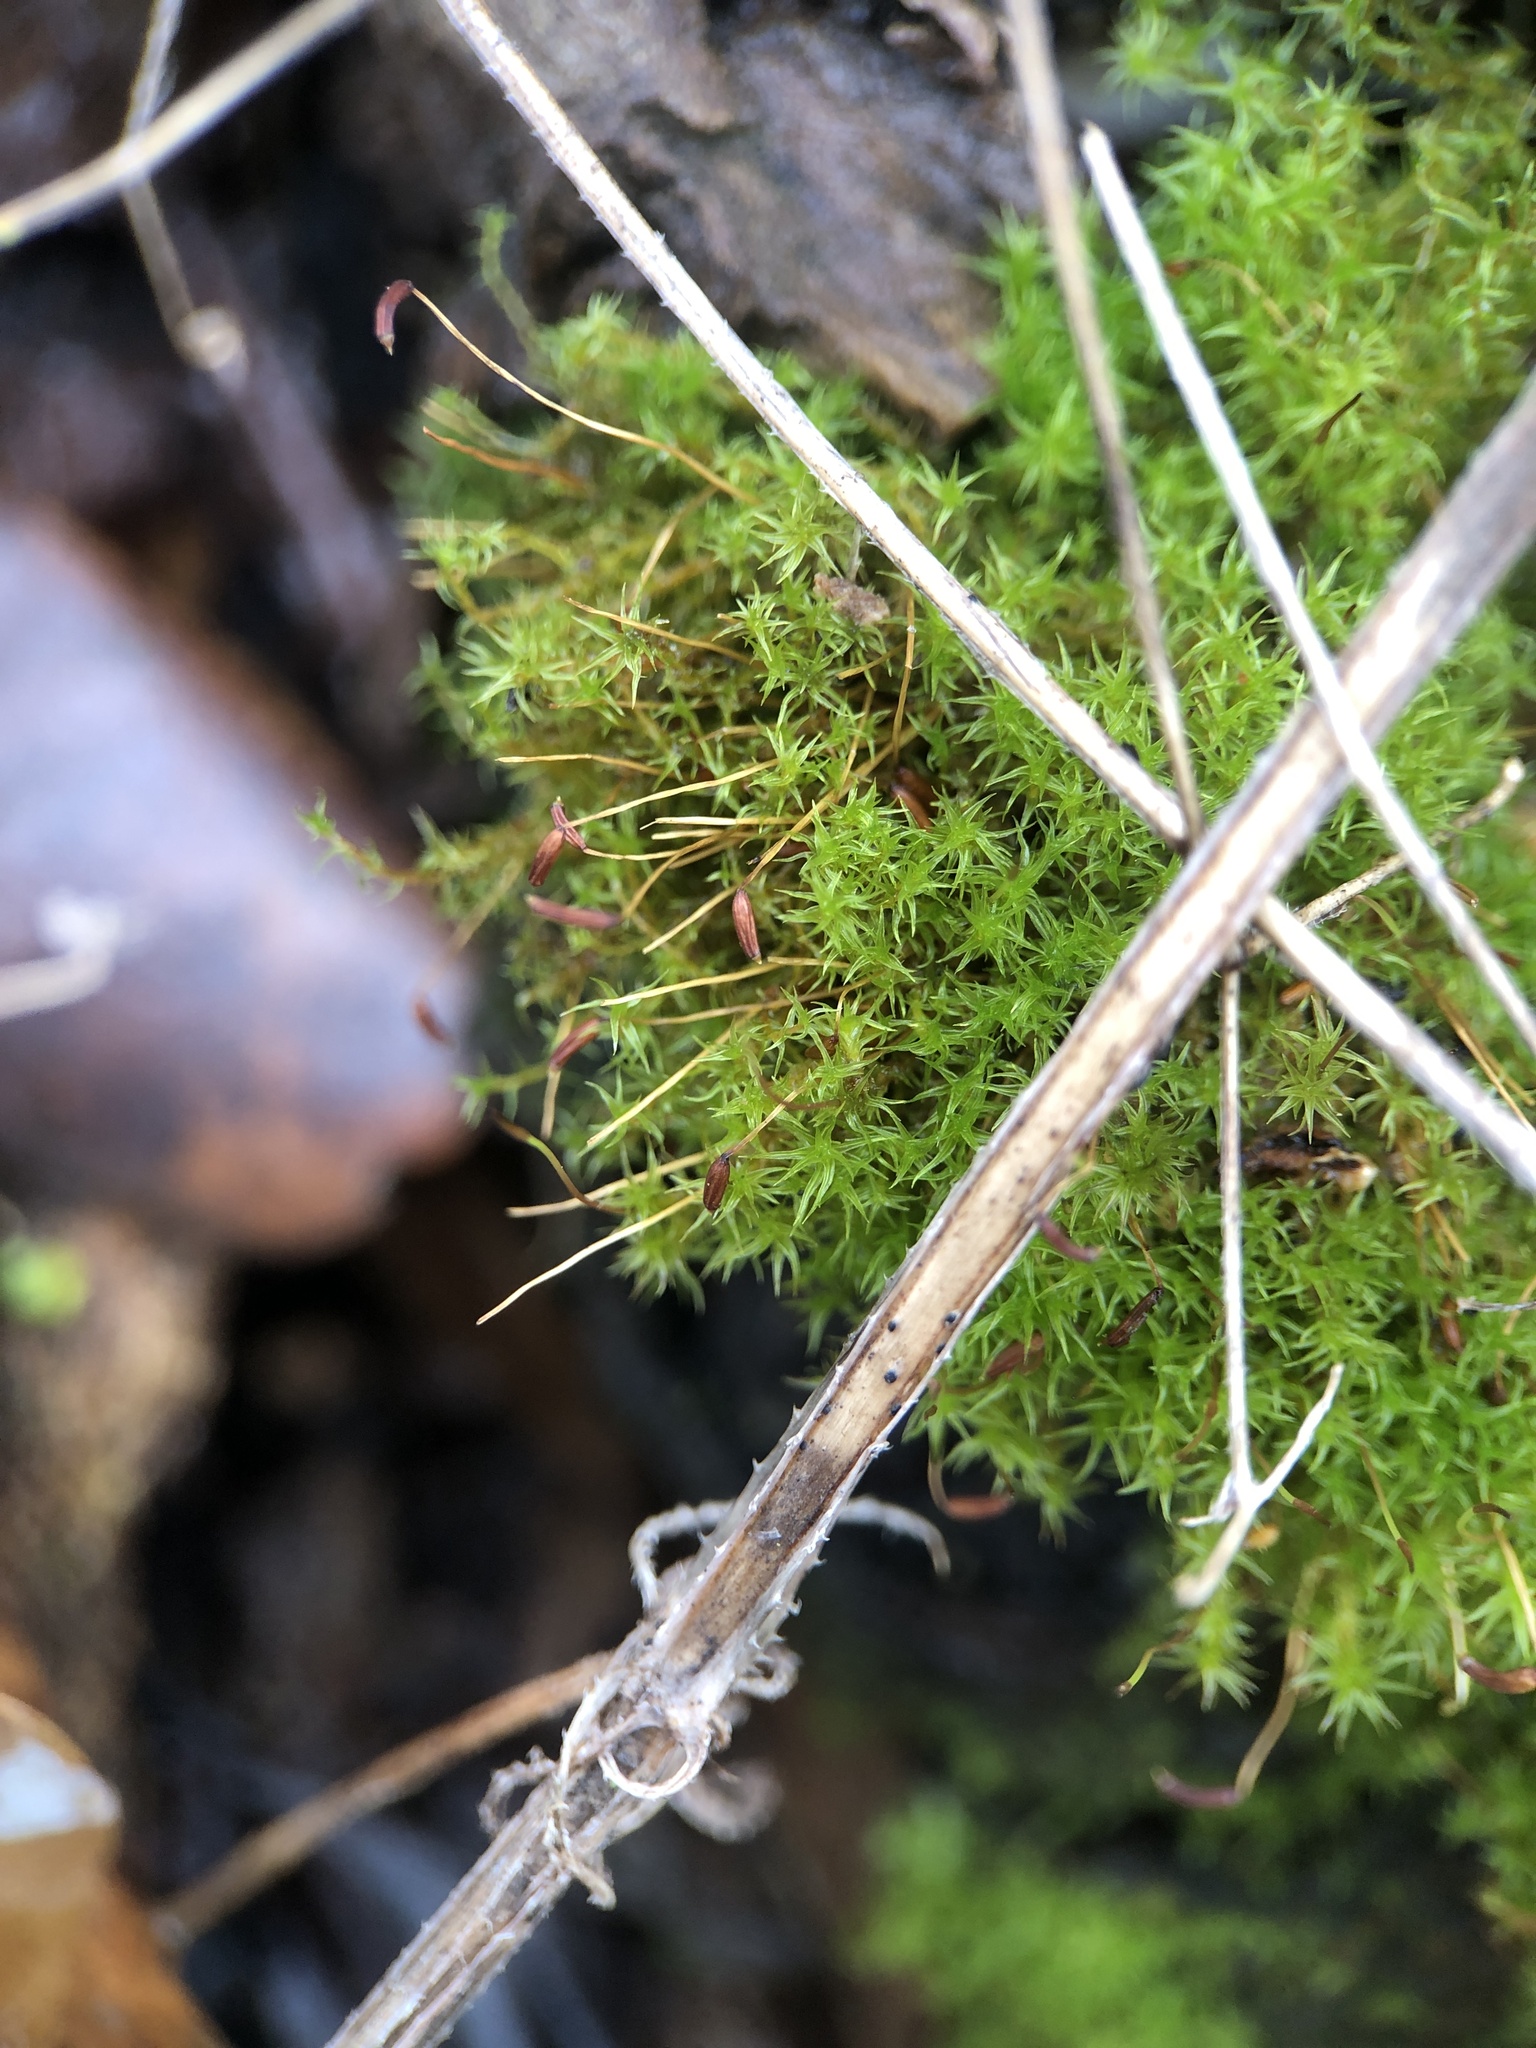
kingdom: Plantae
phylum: Bryophyta
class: Bryopsida
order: Dicranales
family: Ditrichaceae
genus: Ceratodon
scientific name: Ceratodon purpureus
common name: Redshank
